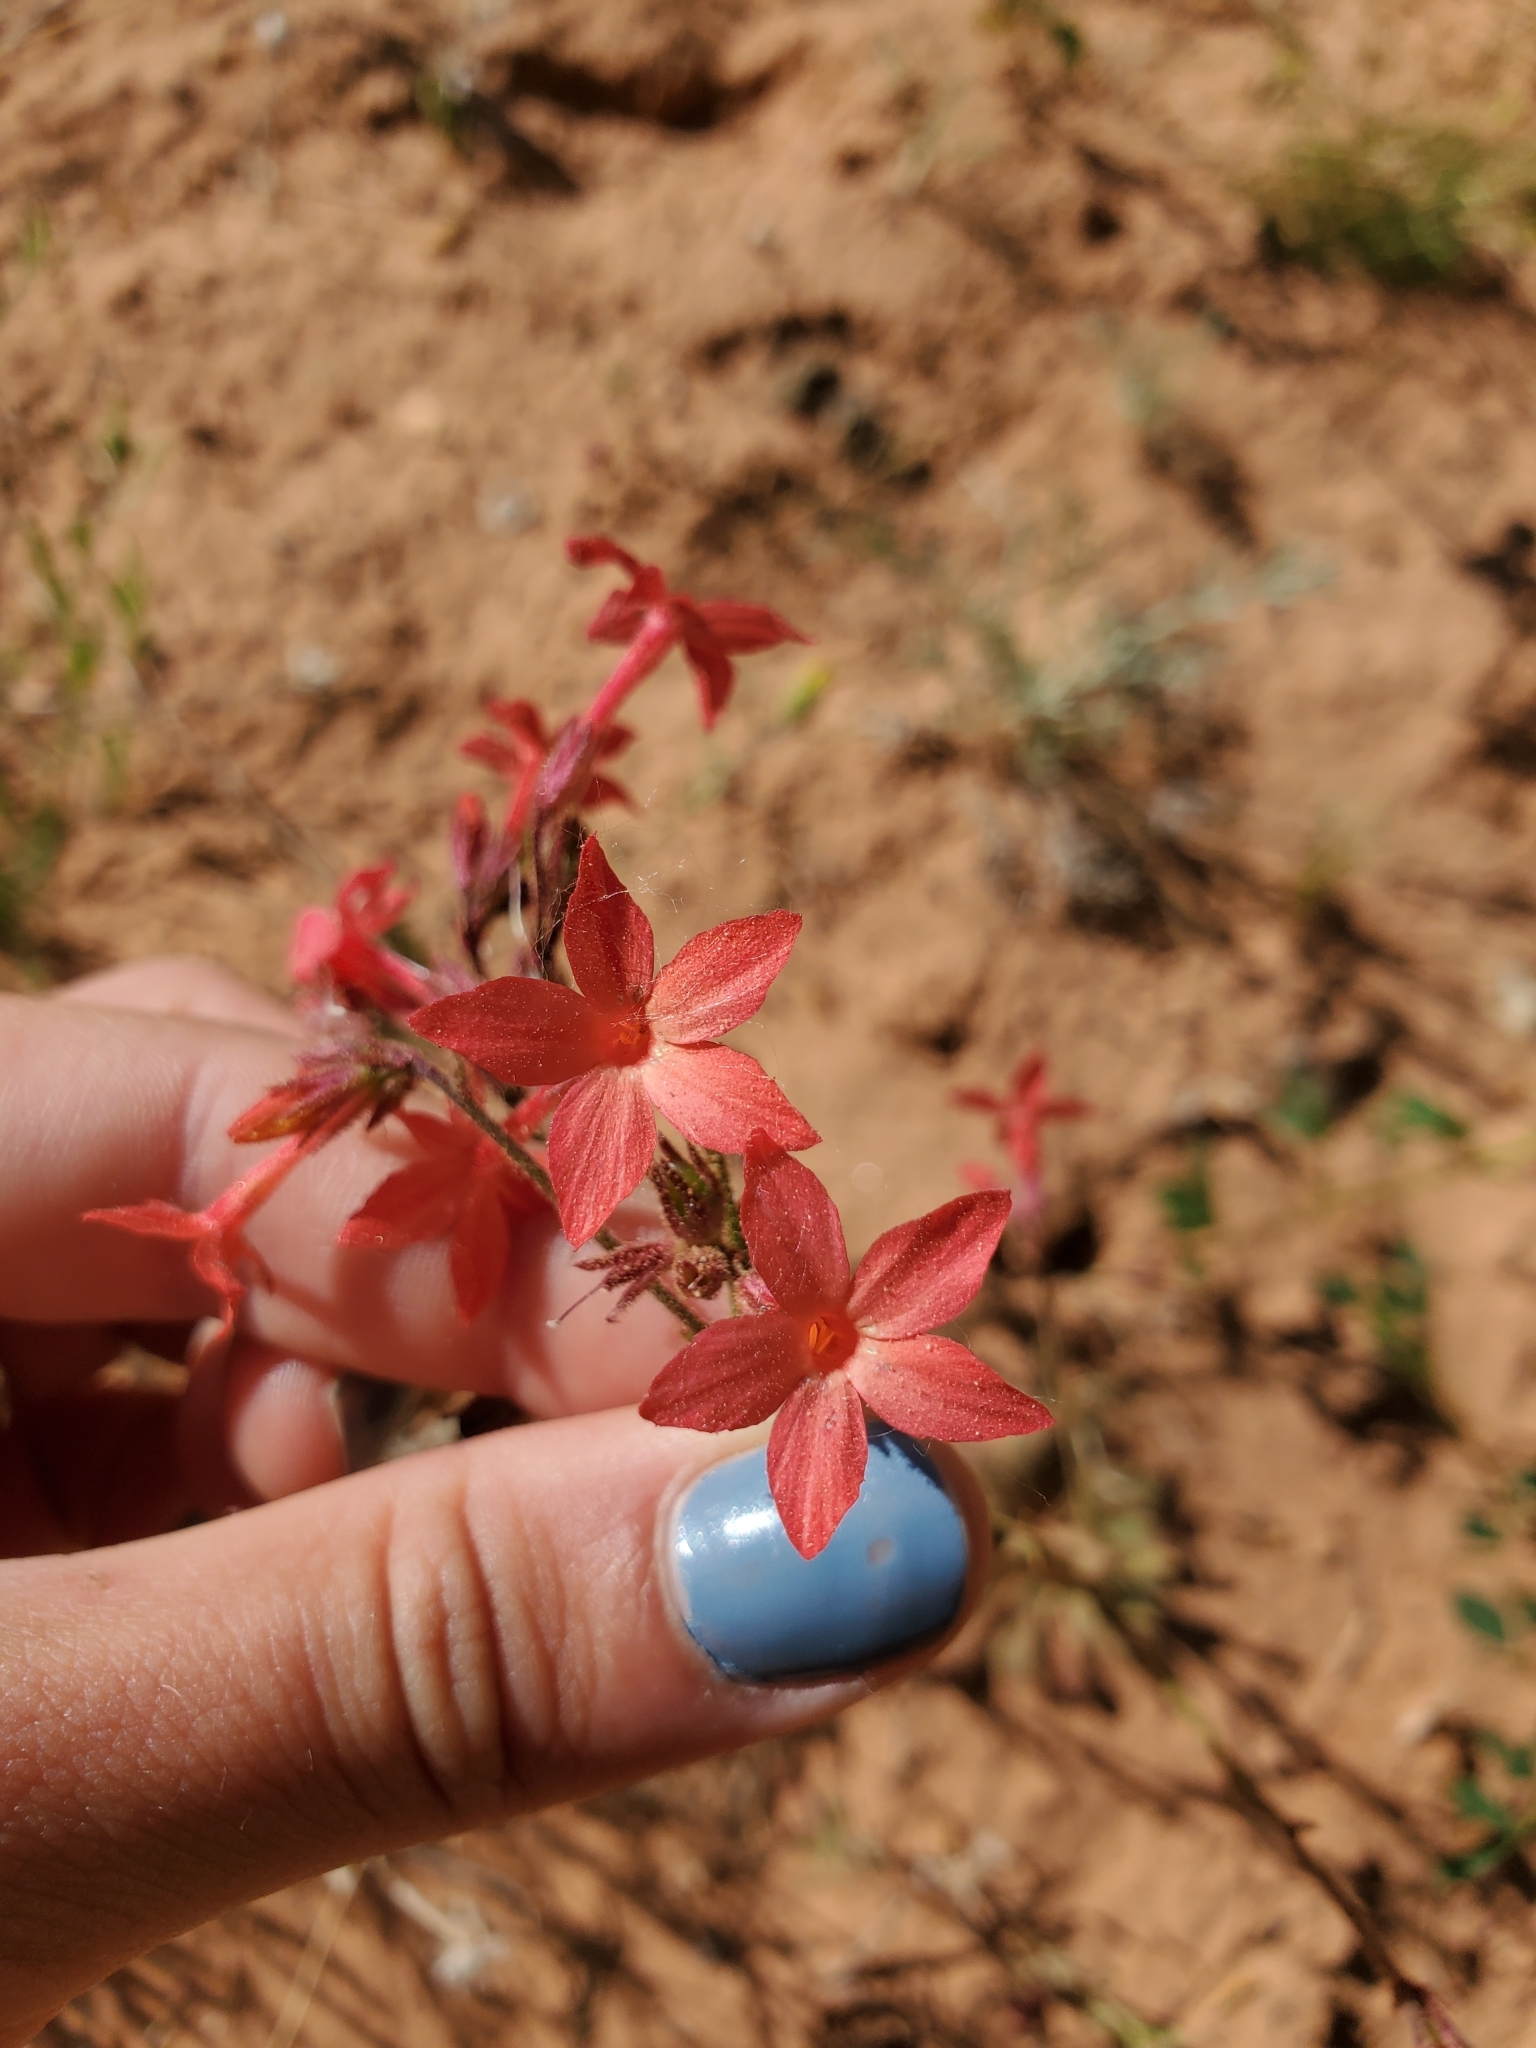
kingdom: Plantae
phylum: Tracheophyta
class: Magnoliopsida
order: Ericales
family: Polemoniaceae
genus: Aliciella
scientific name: Aliciella subnuda
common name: Coral gilia
